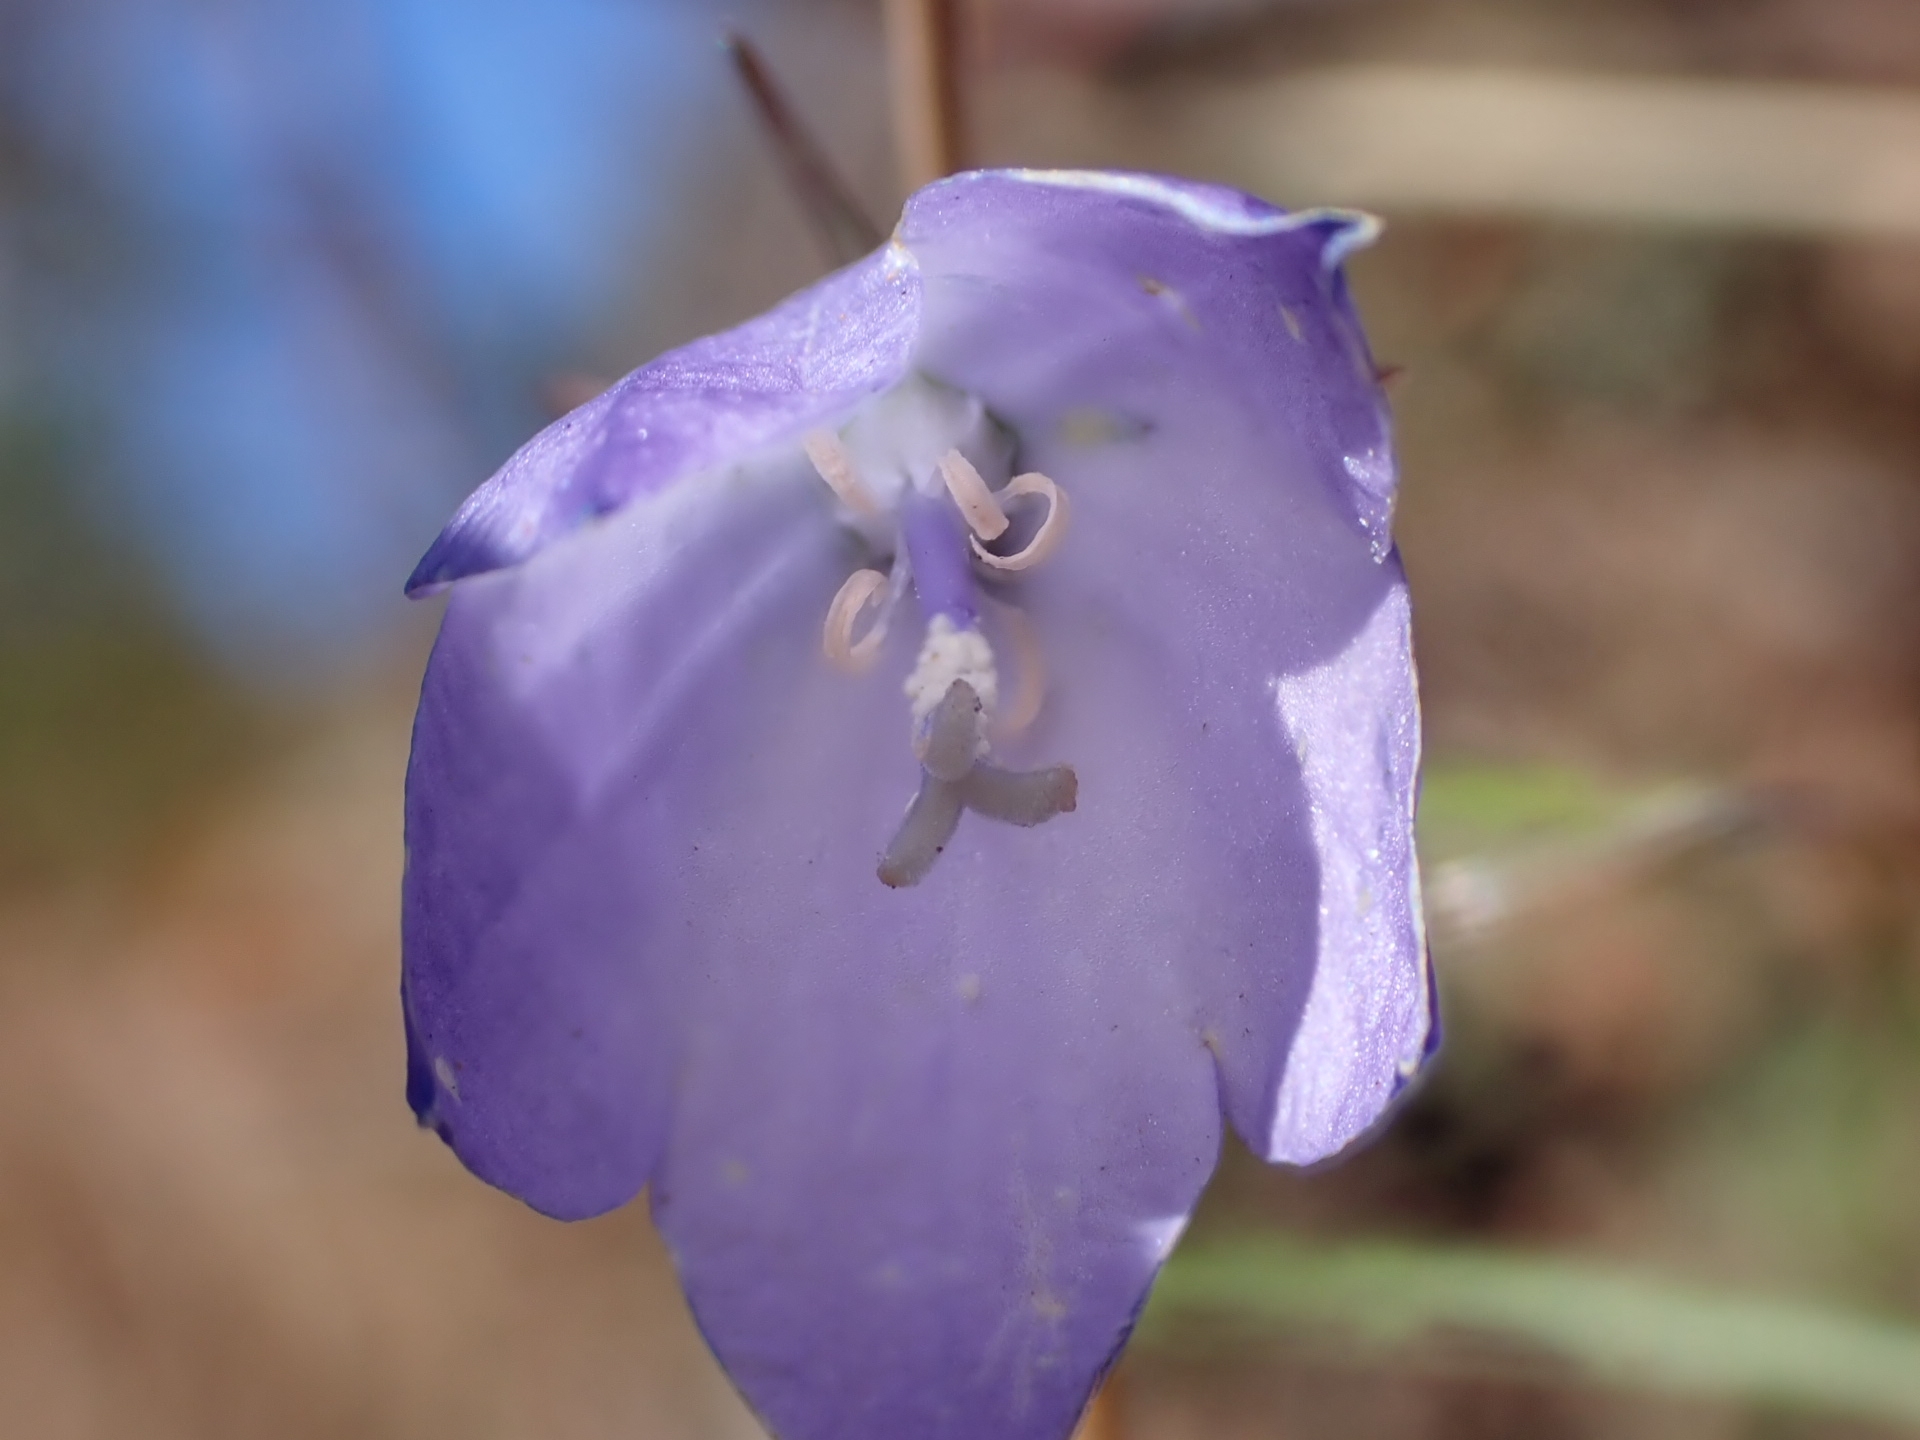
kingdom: Plantae
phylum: Tracheophyta
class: Magnoliopsida
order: Asterales
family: Campanulaceae
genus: Campanula
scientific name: Campanula intercedens
